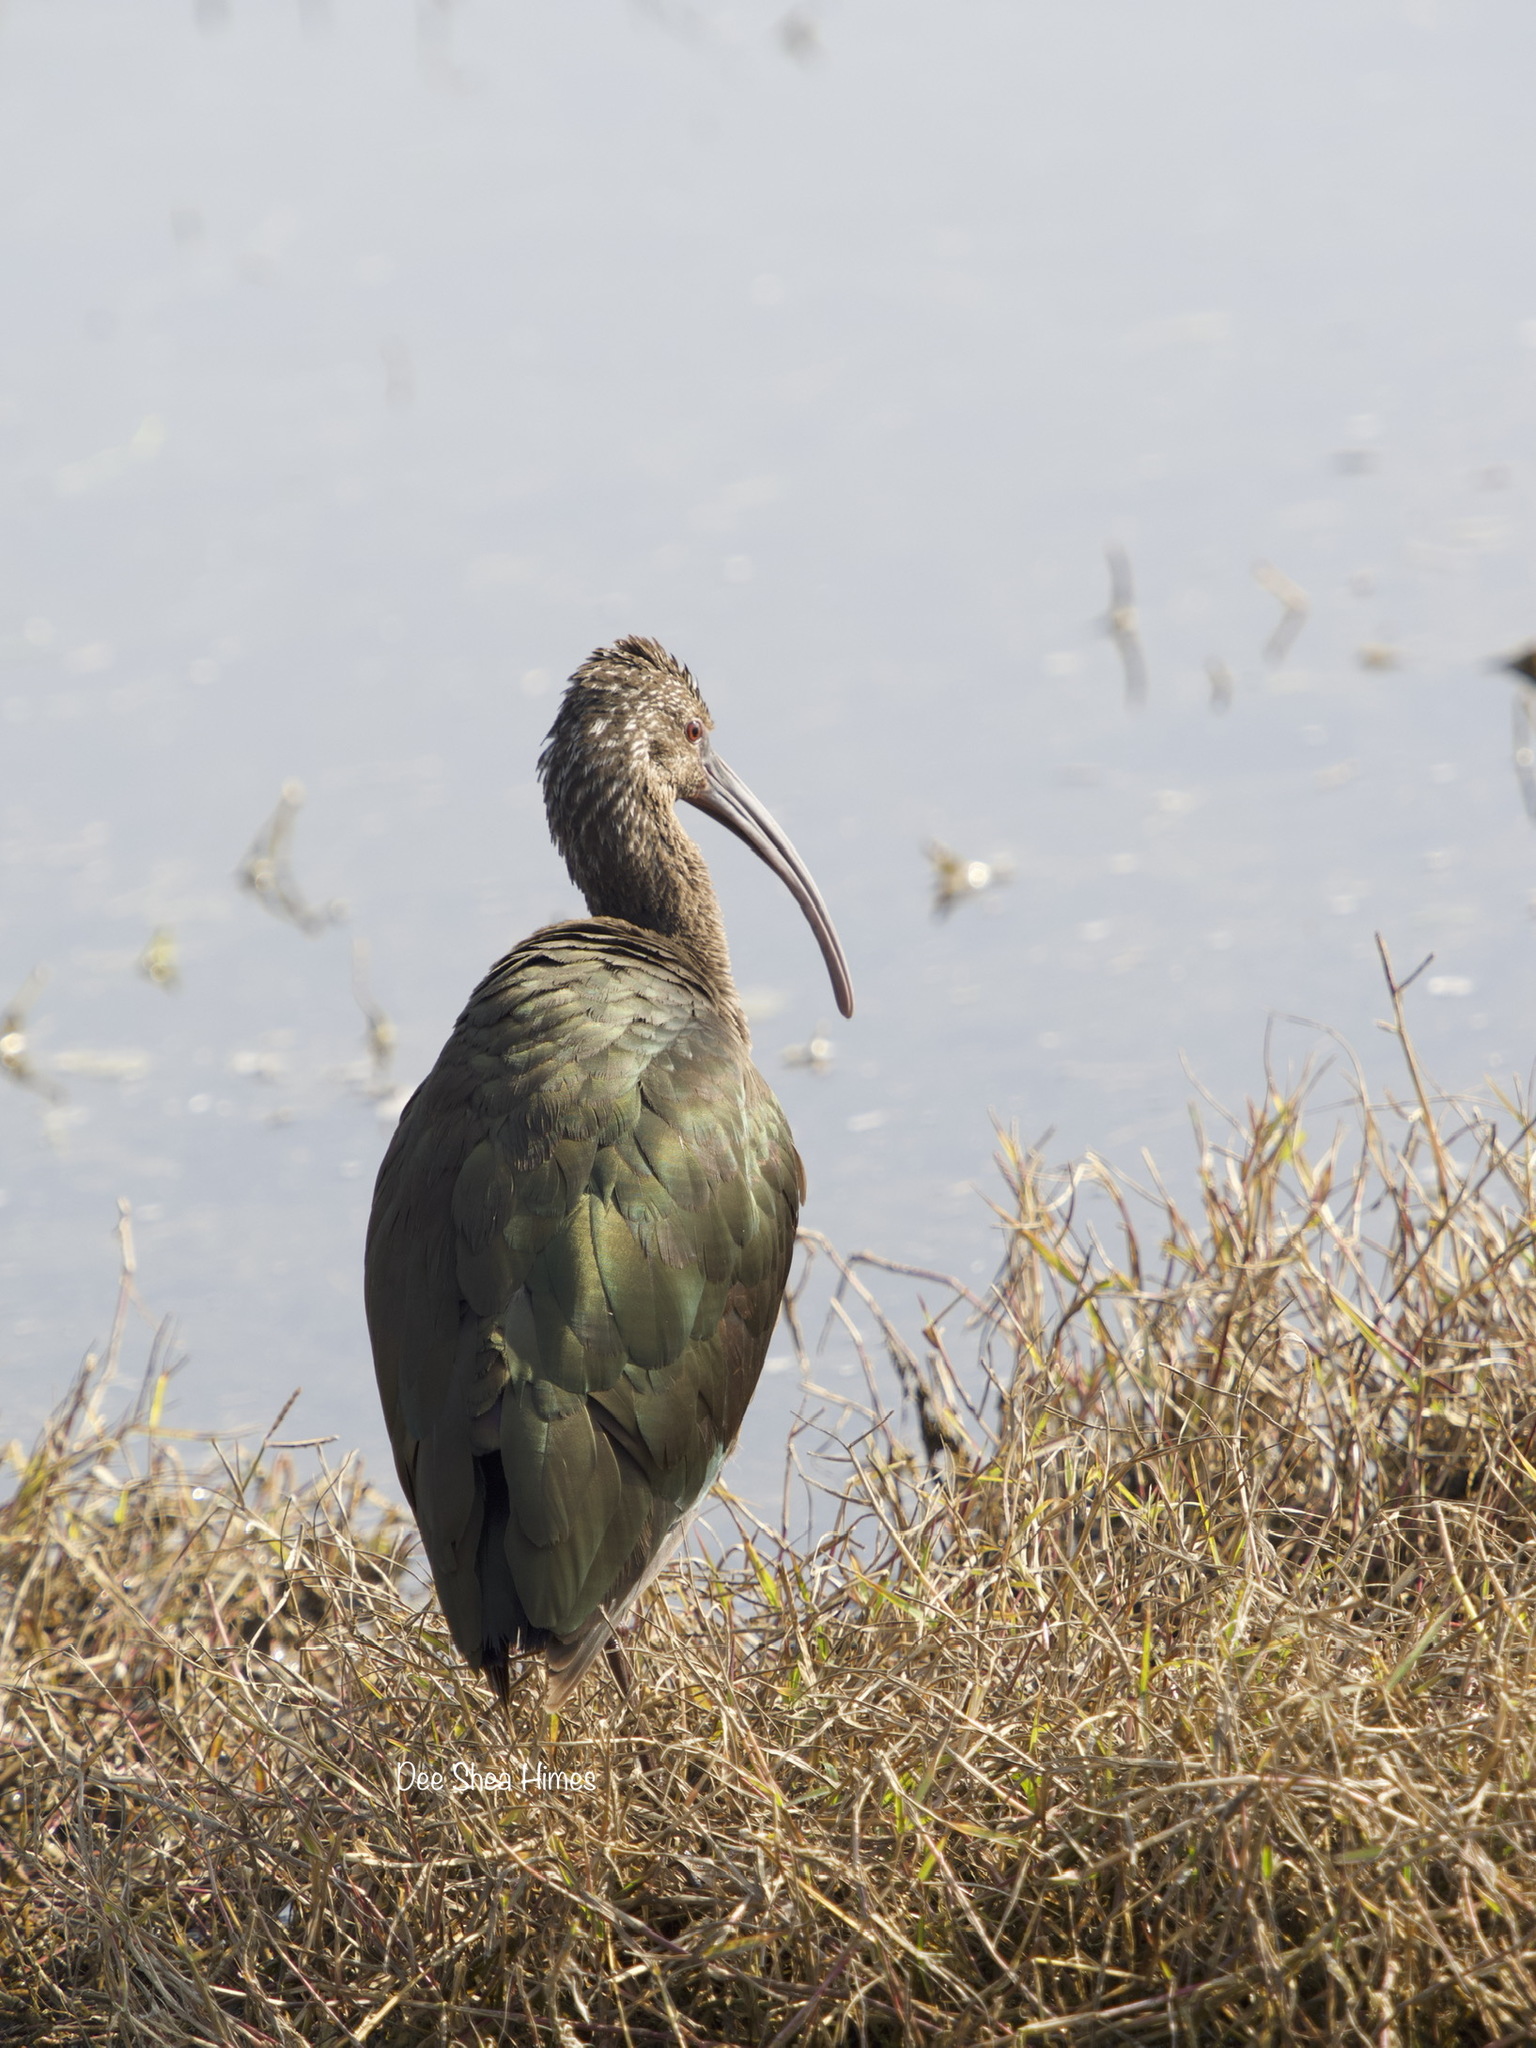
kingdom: Animalia
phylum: Chordata
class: Aves
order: Pelecaniformes
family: Threskiornithidae
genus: Plegadis
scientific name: Plegadis chihi
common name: White-faced ibis
